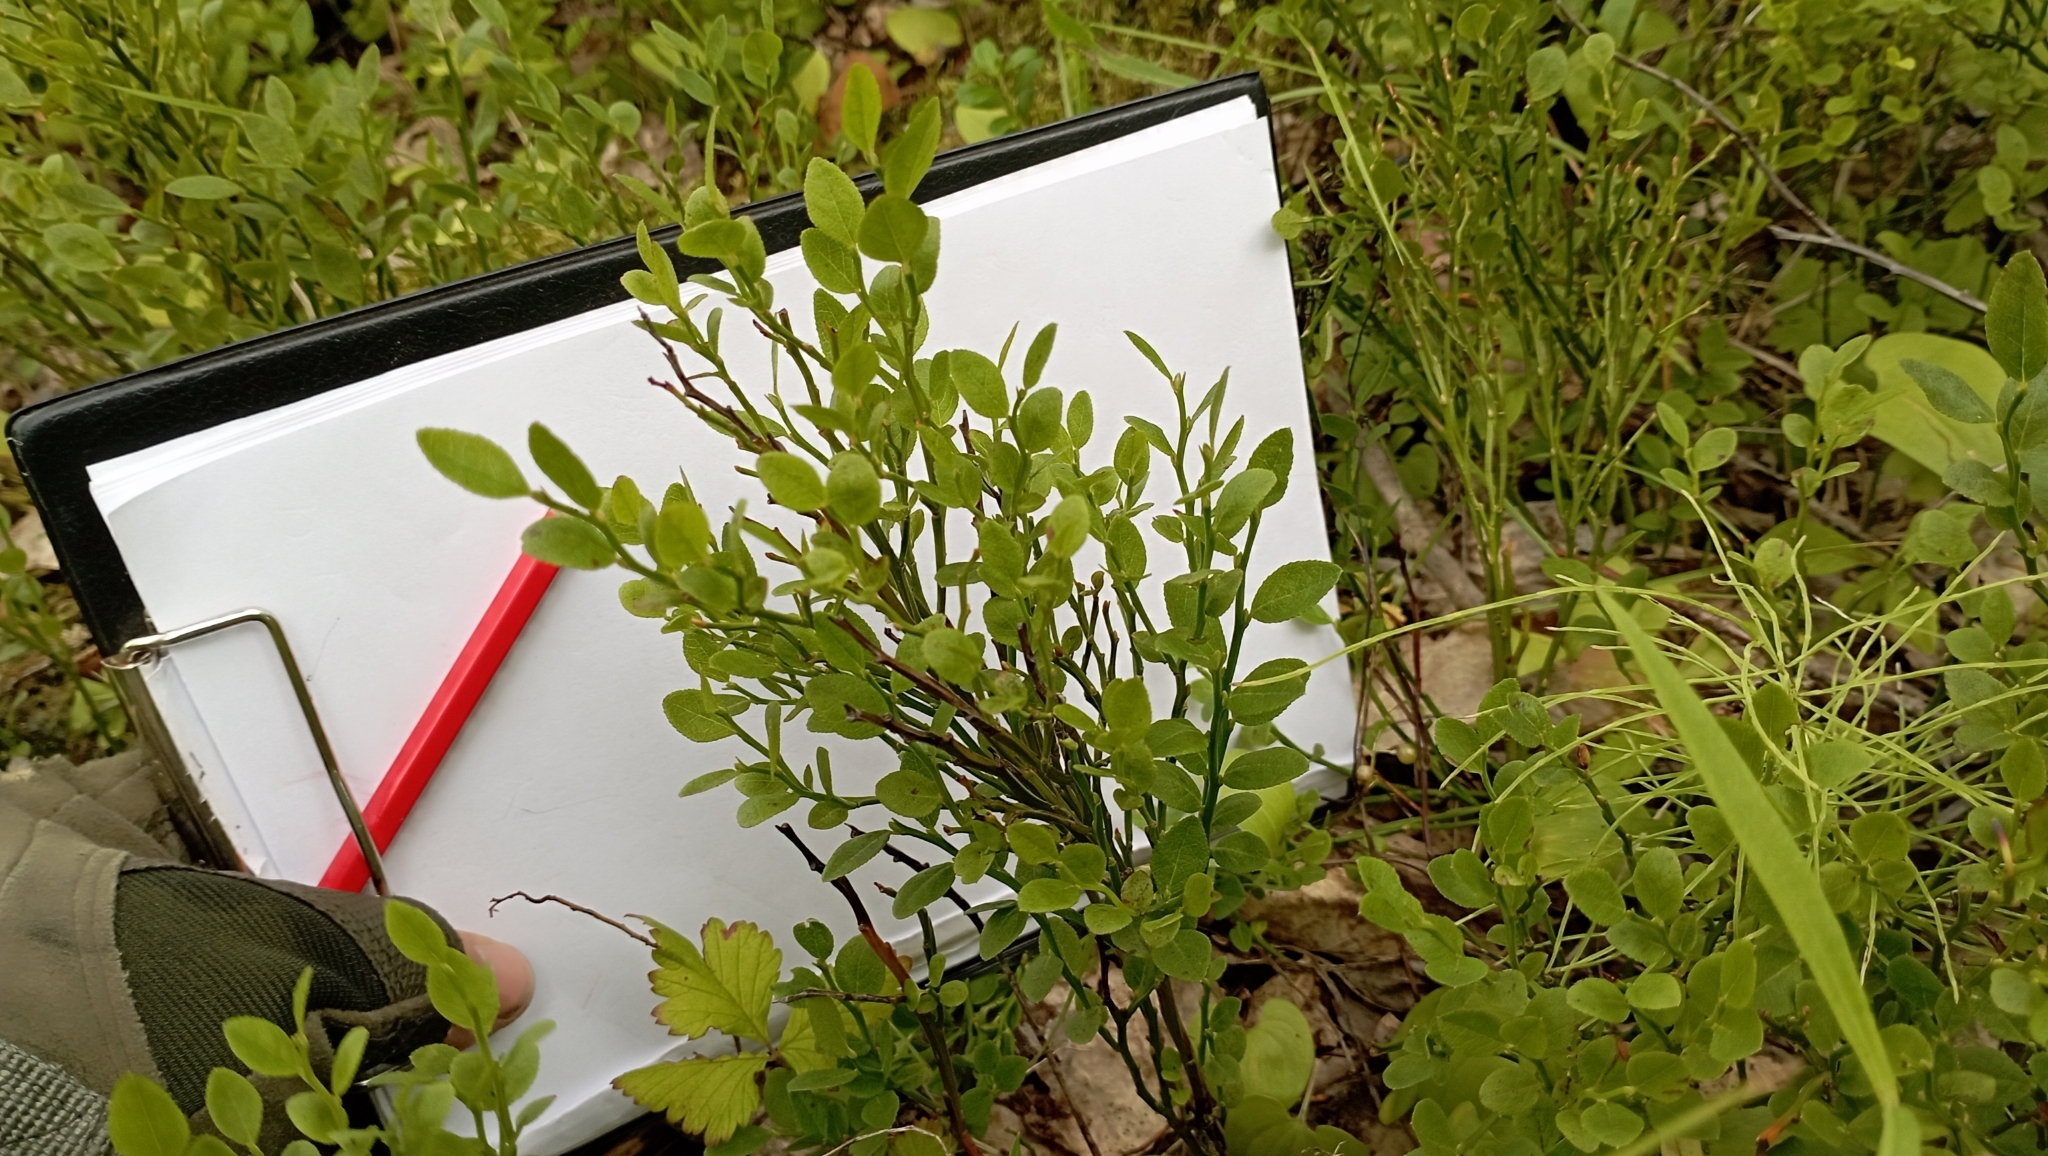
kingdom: Plantae
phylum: Tracheophyta
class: Magnoliopsida
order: Ericales
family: Ericaceae
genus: Vaccinium
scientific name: Vaccinium myrtillus
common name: Bilberry
